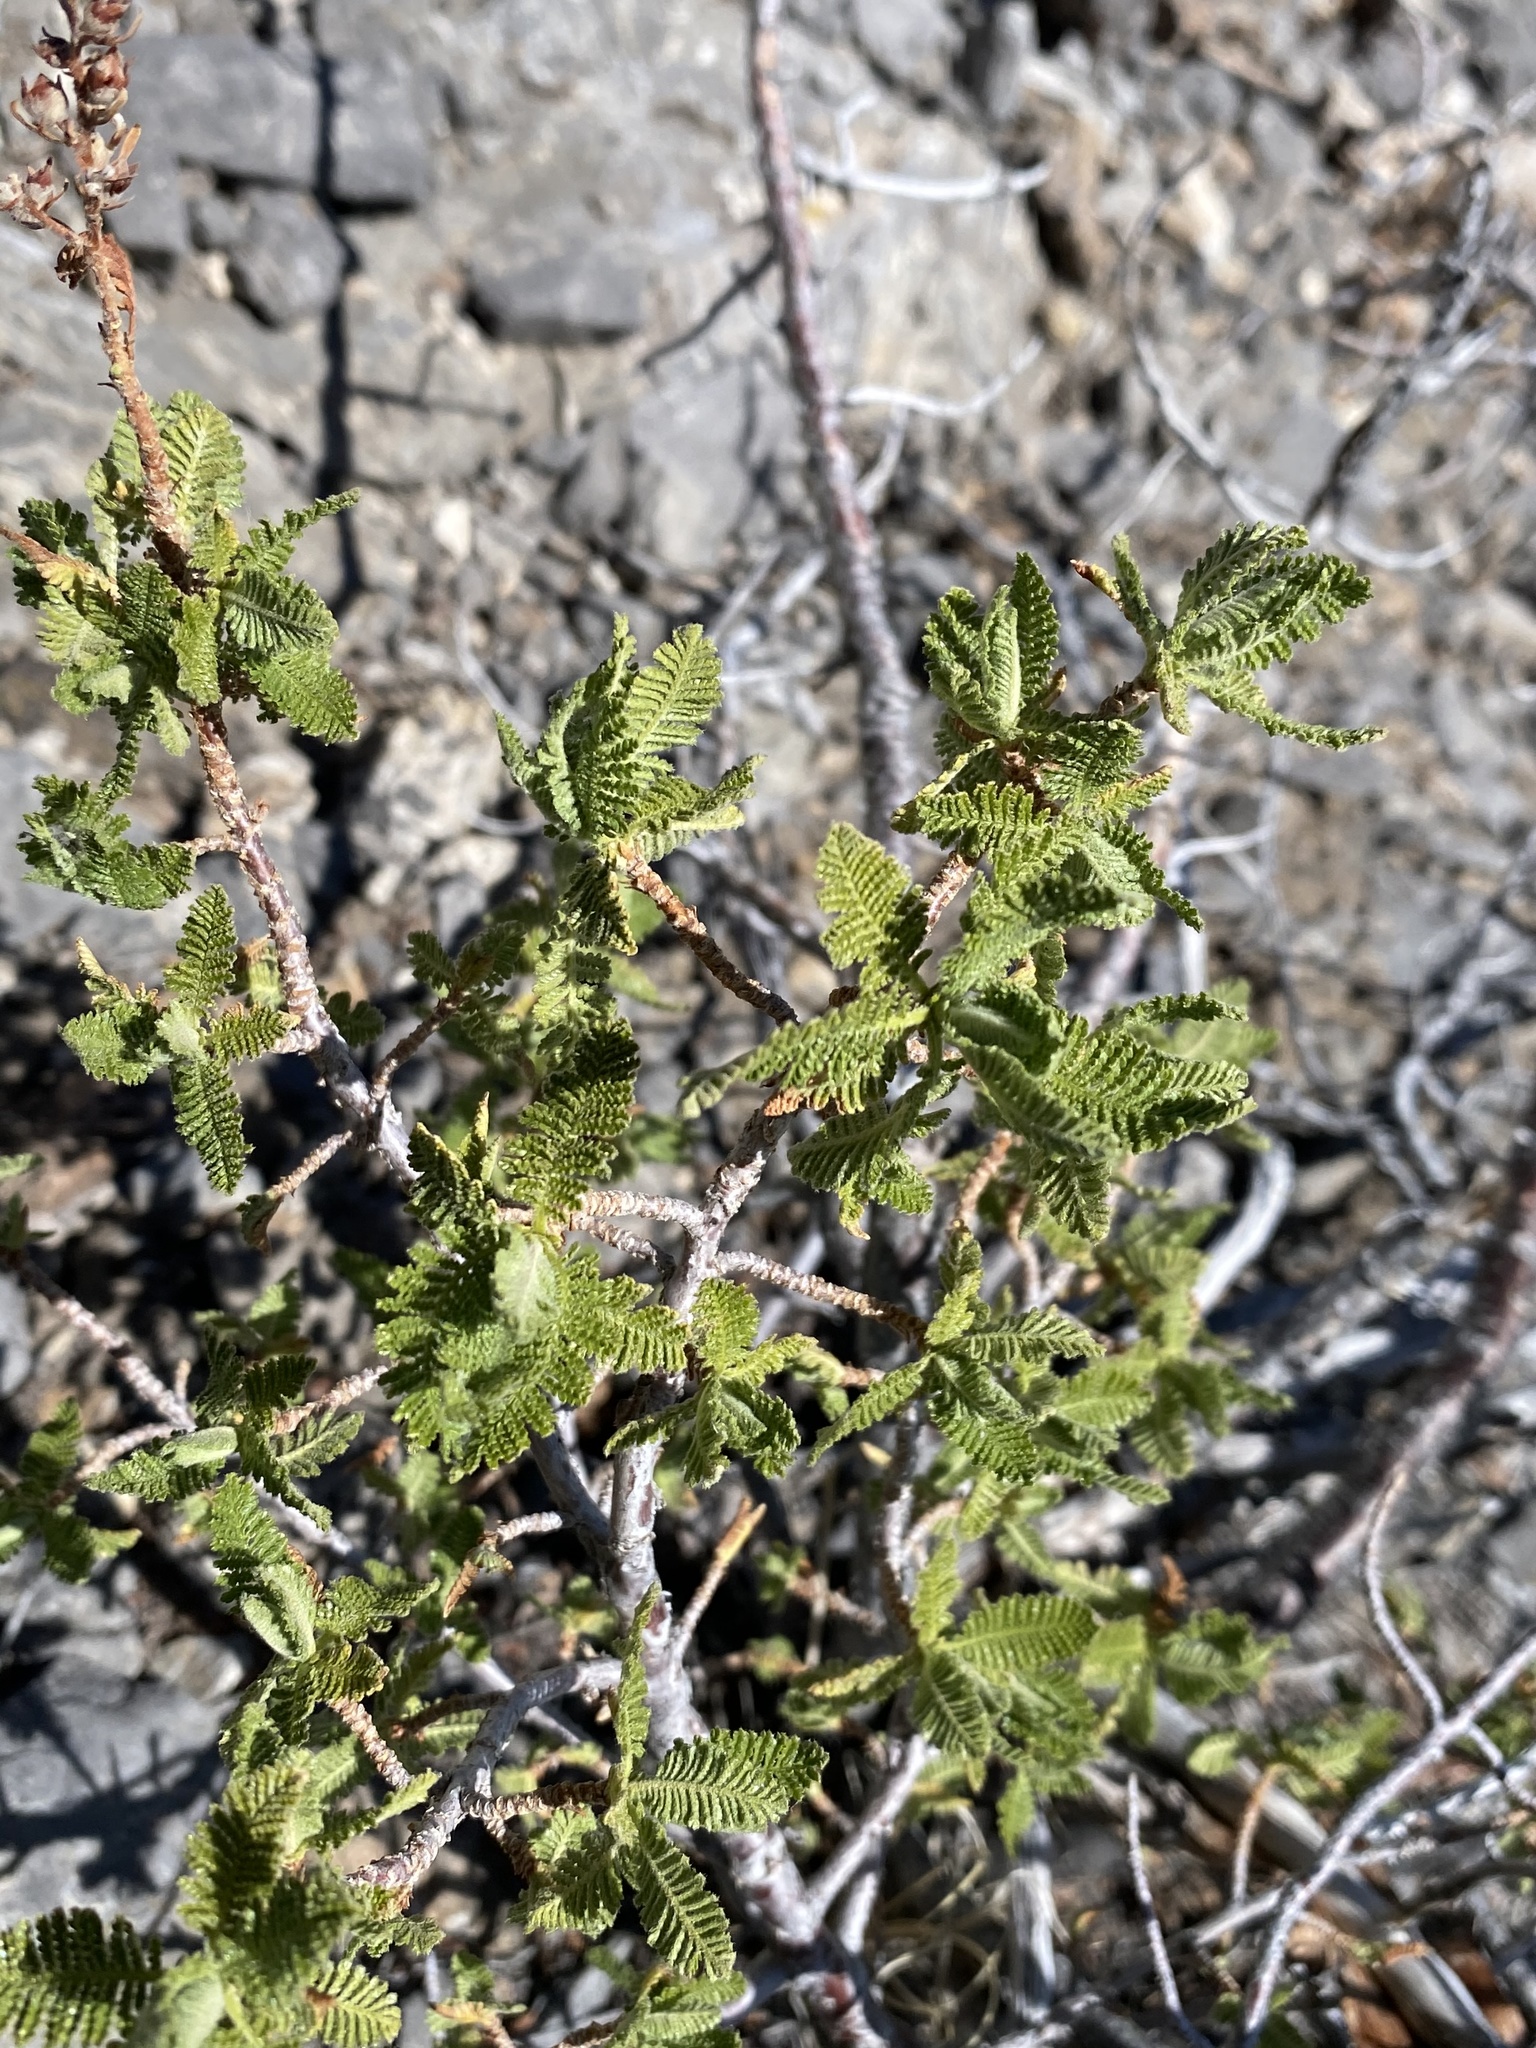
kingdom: Plantae
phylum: Tracheophyta
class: Magnoliopsida
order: Rosales
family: Rosaceae
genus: Chamaebatiaria
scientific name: Chamaebatiaria millefolium
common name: Fernbush
